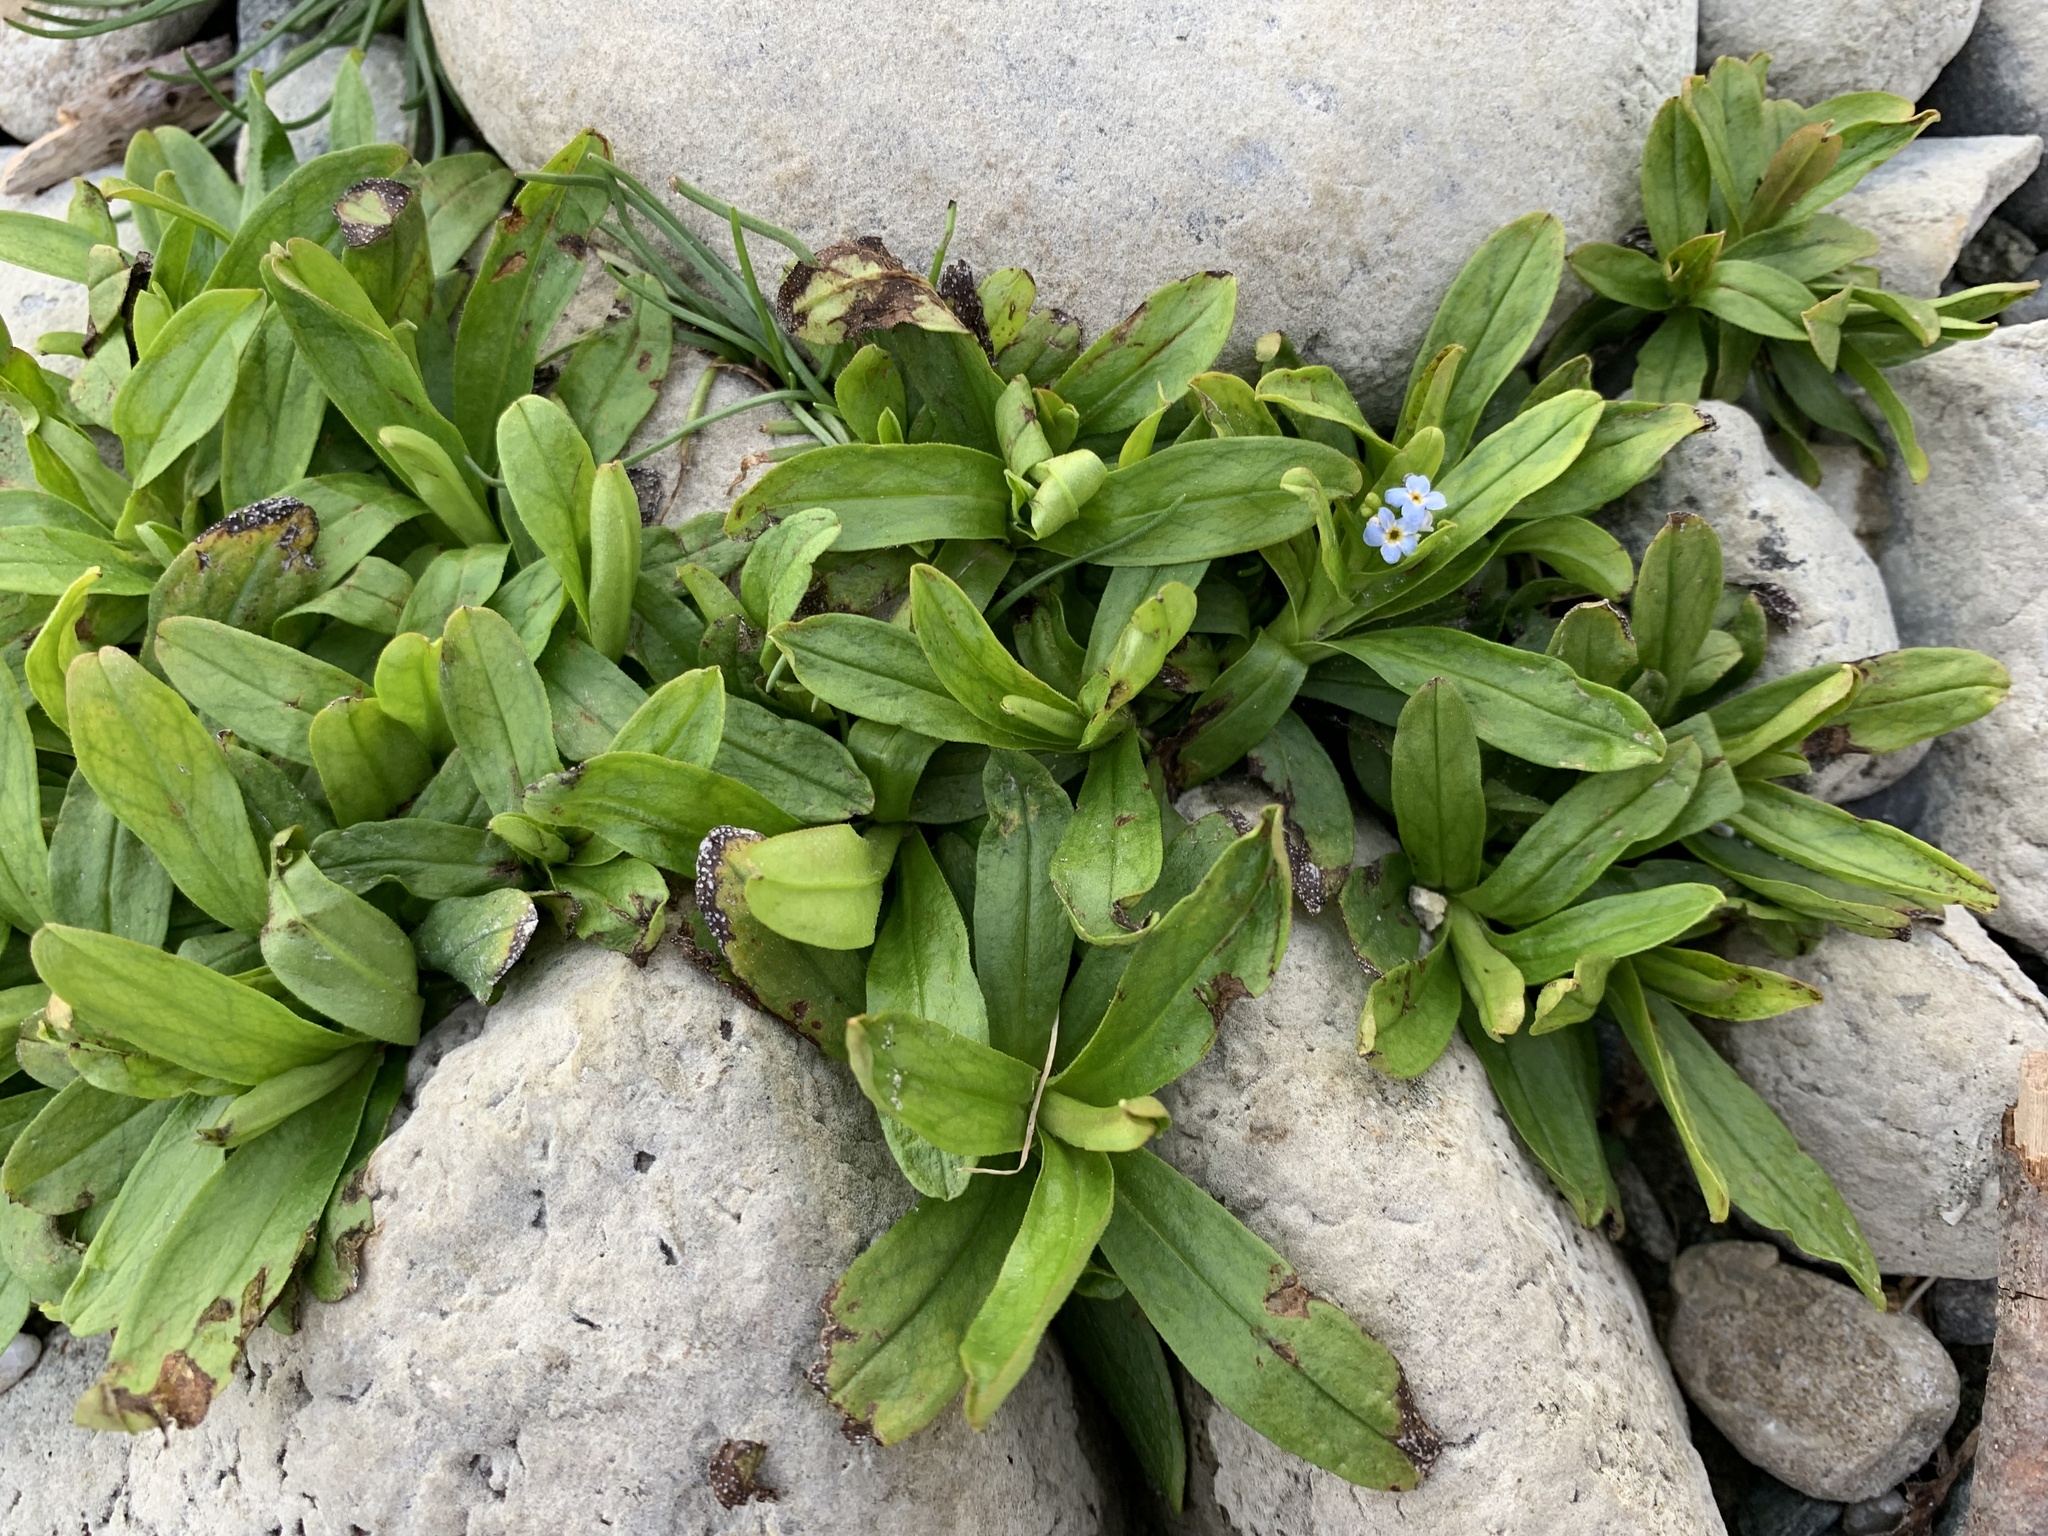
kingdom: Plantae
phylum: Tracheophyta
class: Magnoliopsida
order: Boraginales
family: Boraginaceae
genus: Myosotis
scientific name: Myosotis rehsteineri
